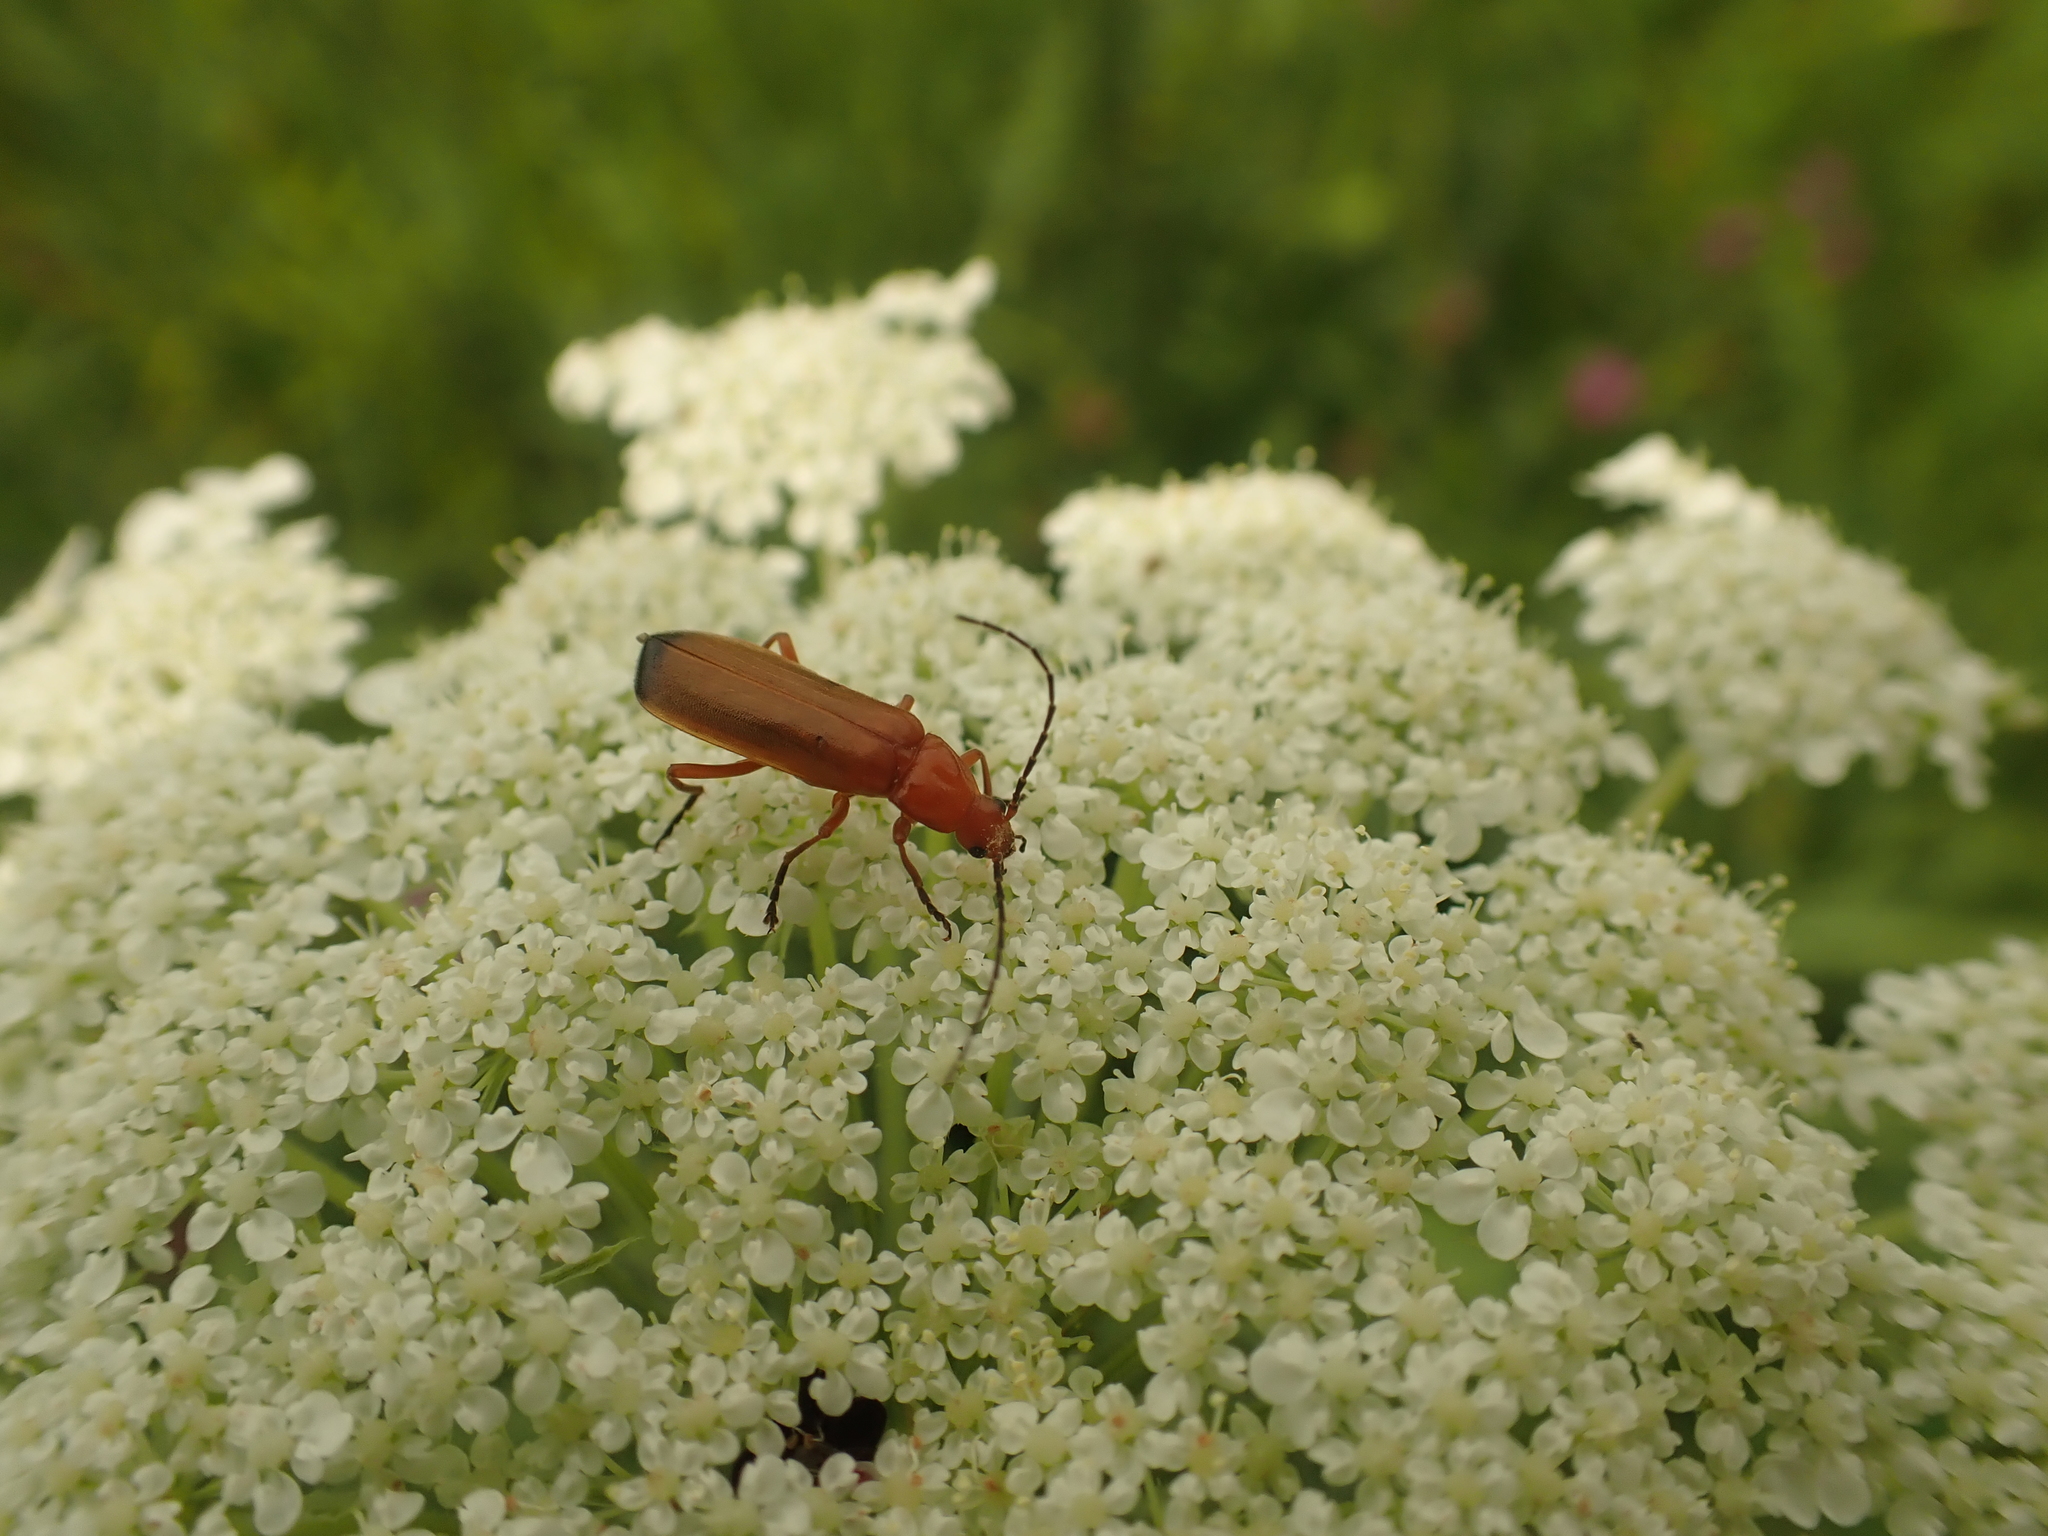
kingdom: Animalia
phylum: Arthropoda
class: Insecta
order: Coleoptera
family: Cantharidae
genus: Rhagonycha
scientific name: Rhagonycha fulva
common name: Common red soldier beetle
